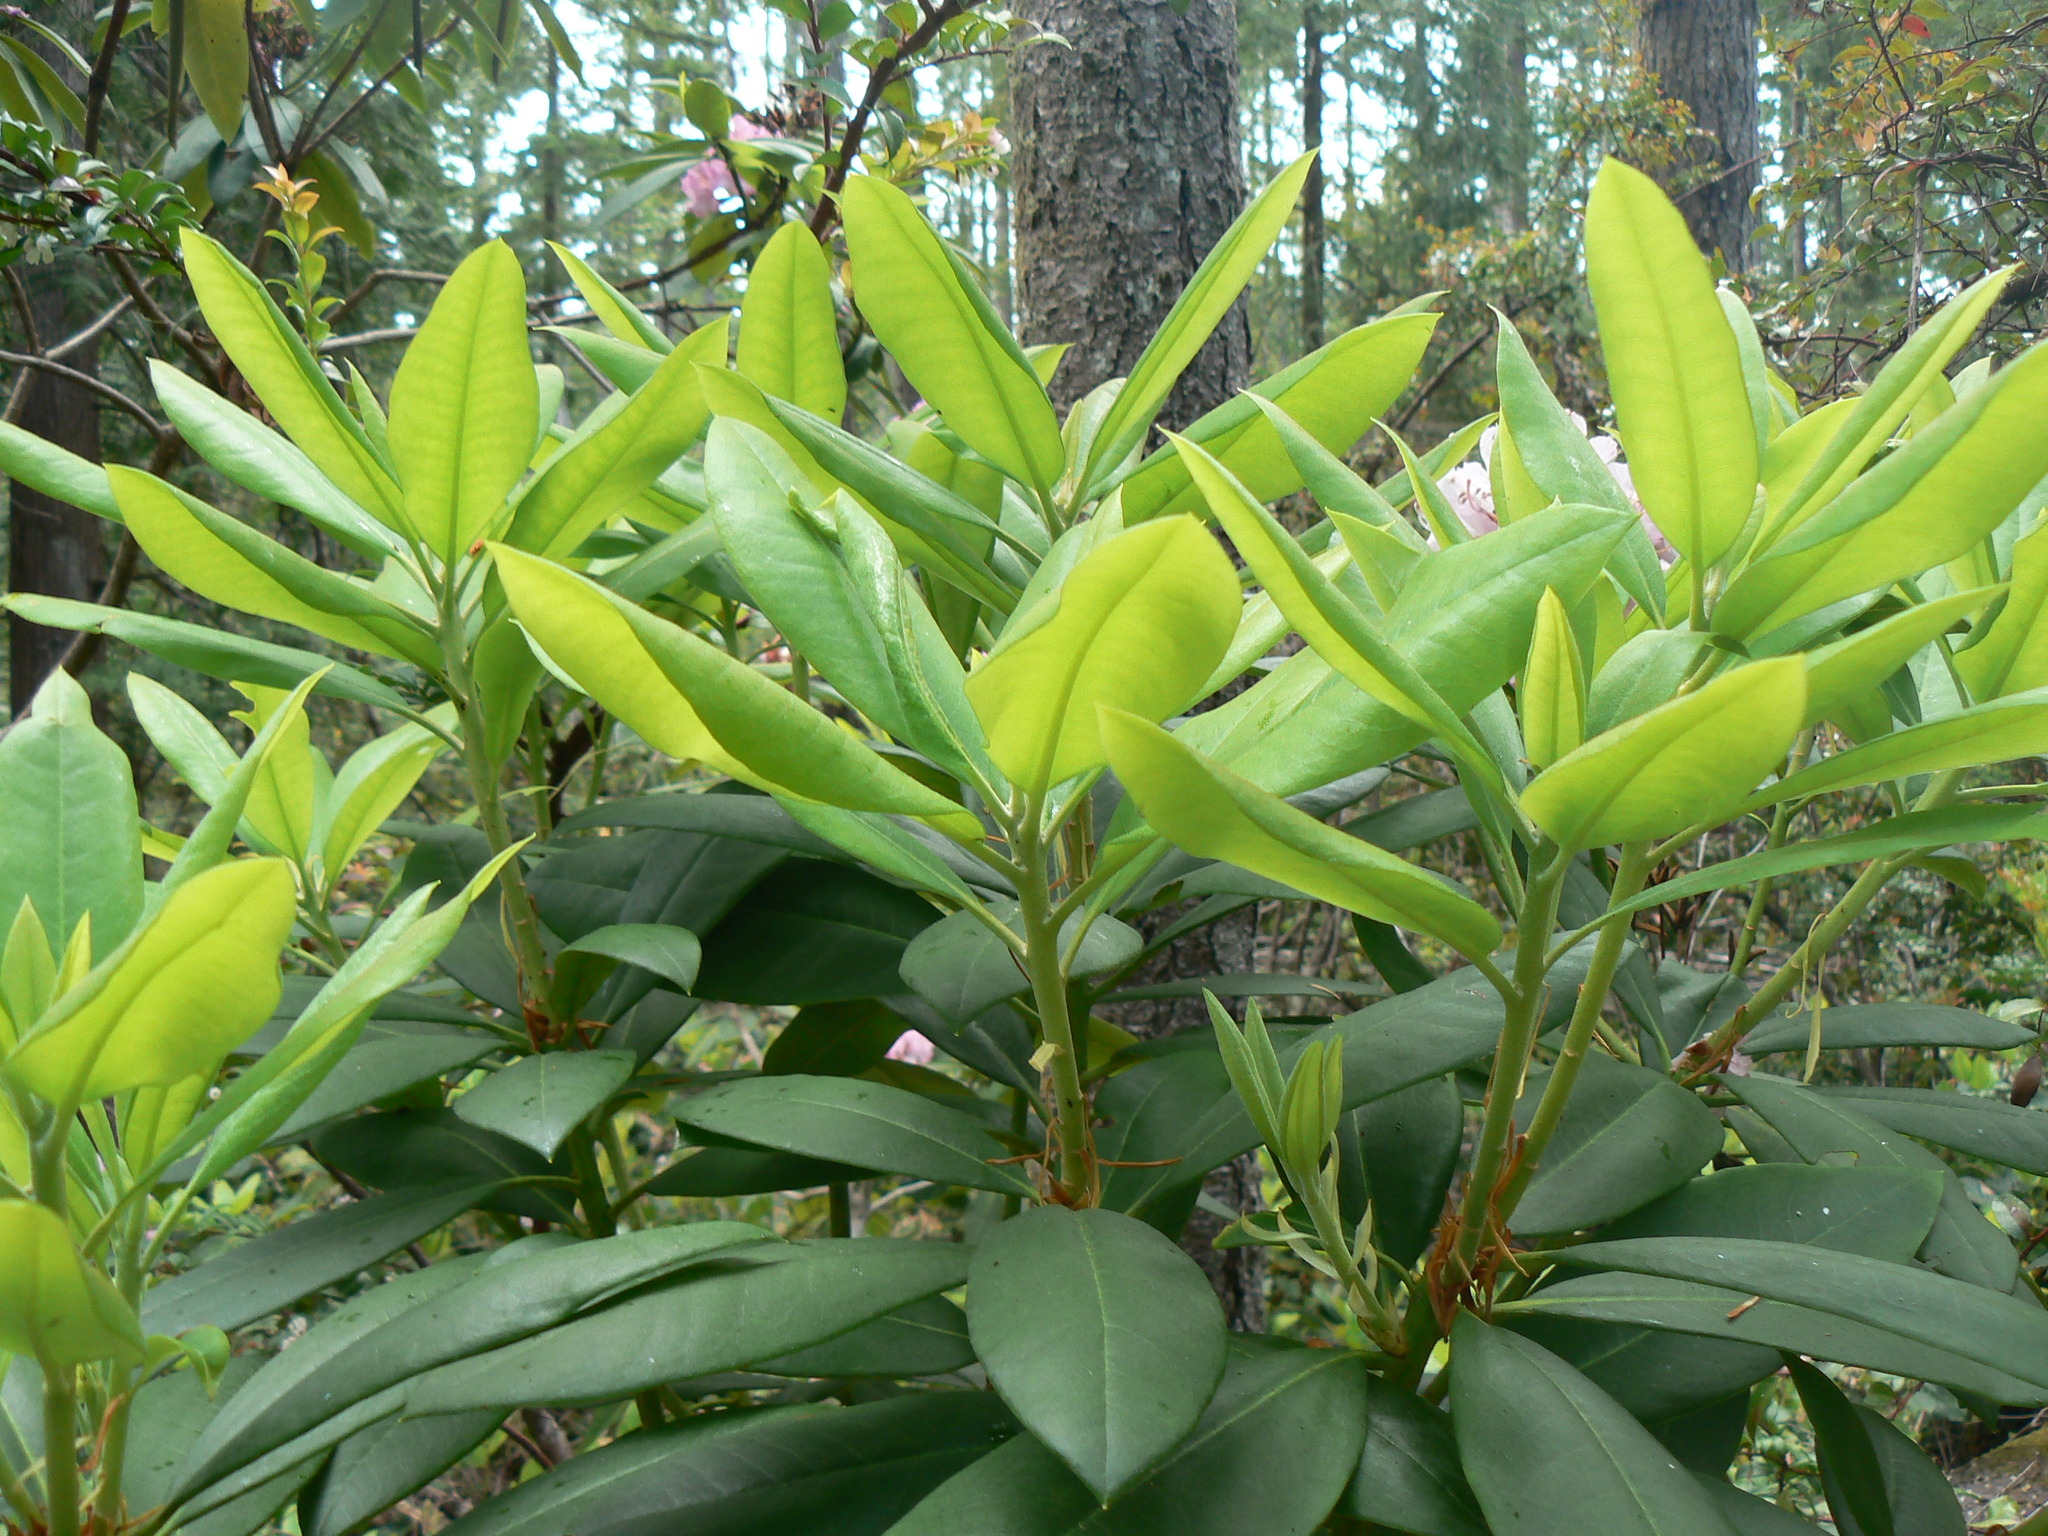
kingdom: Plantae
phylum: Tracheophyta
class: Magnoliopsida
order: Ericales
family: Ericaceae
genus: Rhododendron
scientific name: Rhododendron macrophyllum
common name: California rose bay
